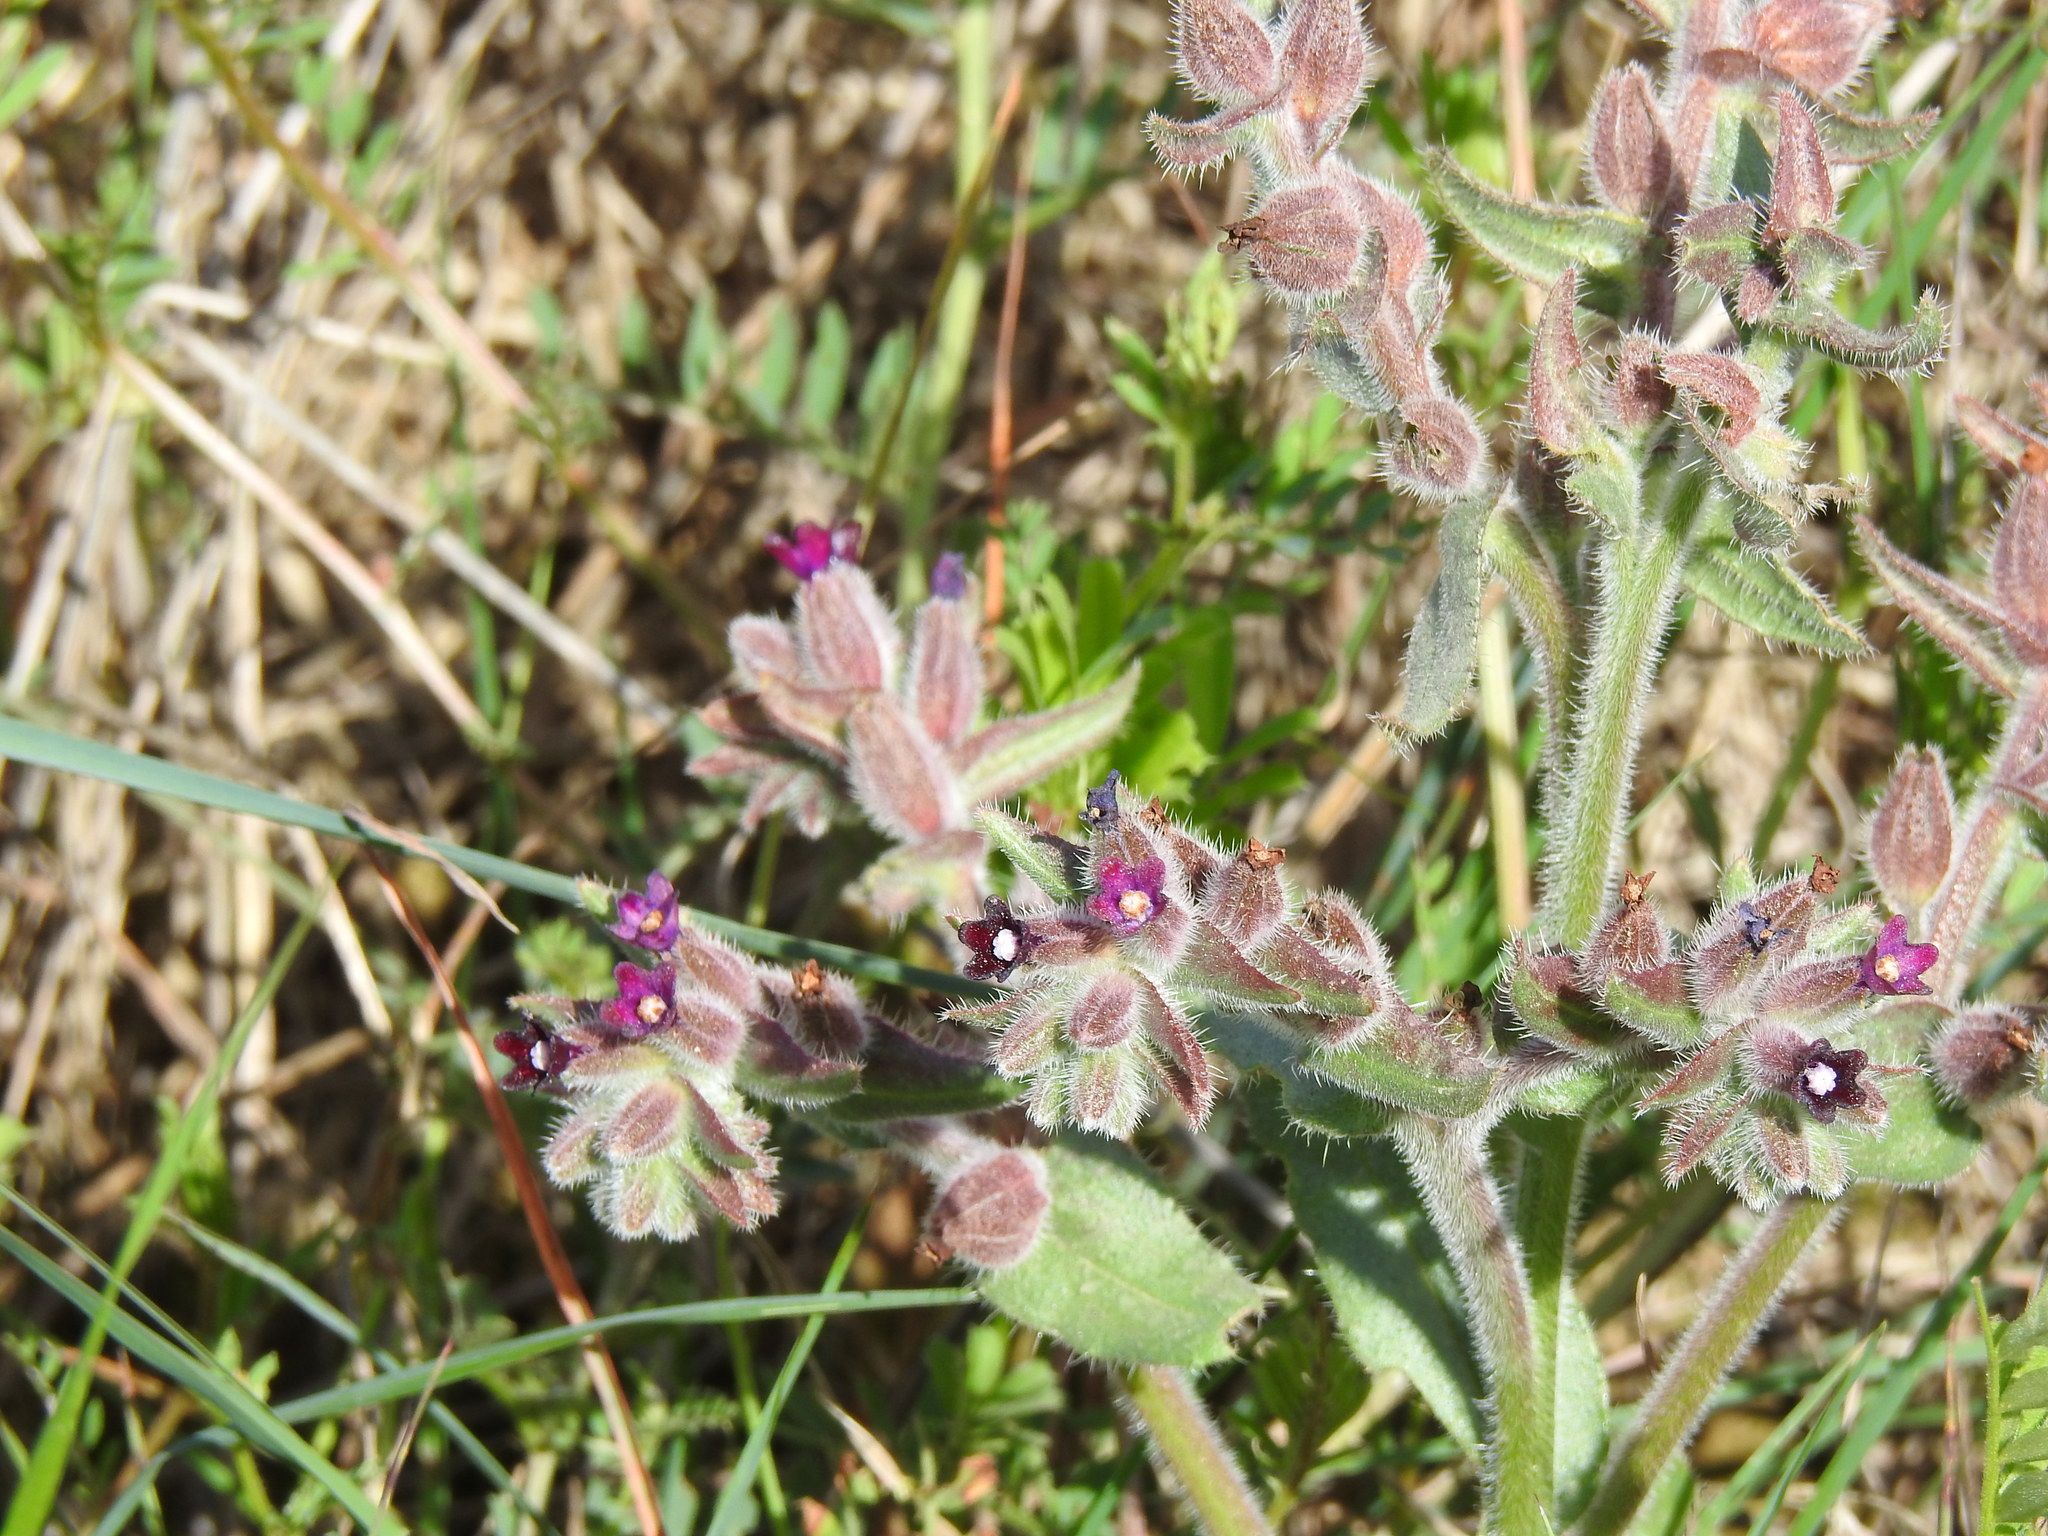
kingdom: Plantae
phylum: Tracheophyta
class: Magnoliopsida
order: Boraginales
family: Boraginaceae
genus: Anchusa
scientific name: Anchusa undulata
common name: Undulate alkanet
